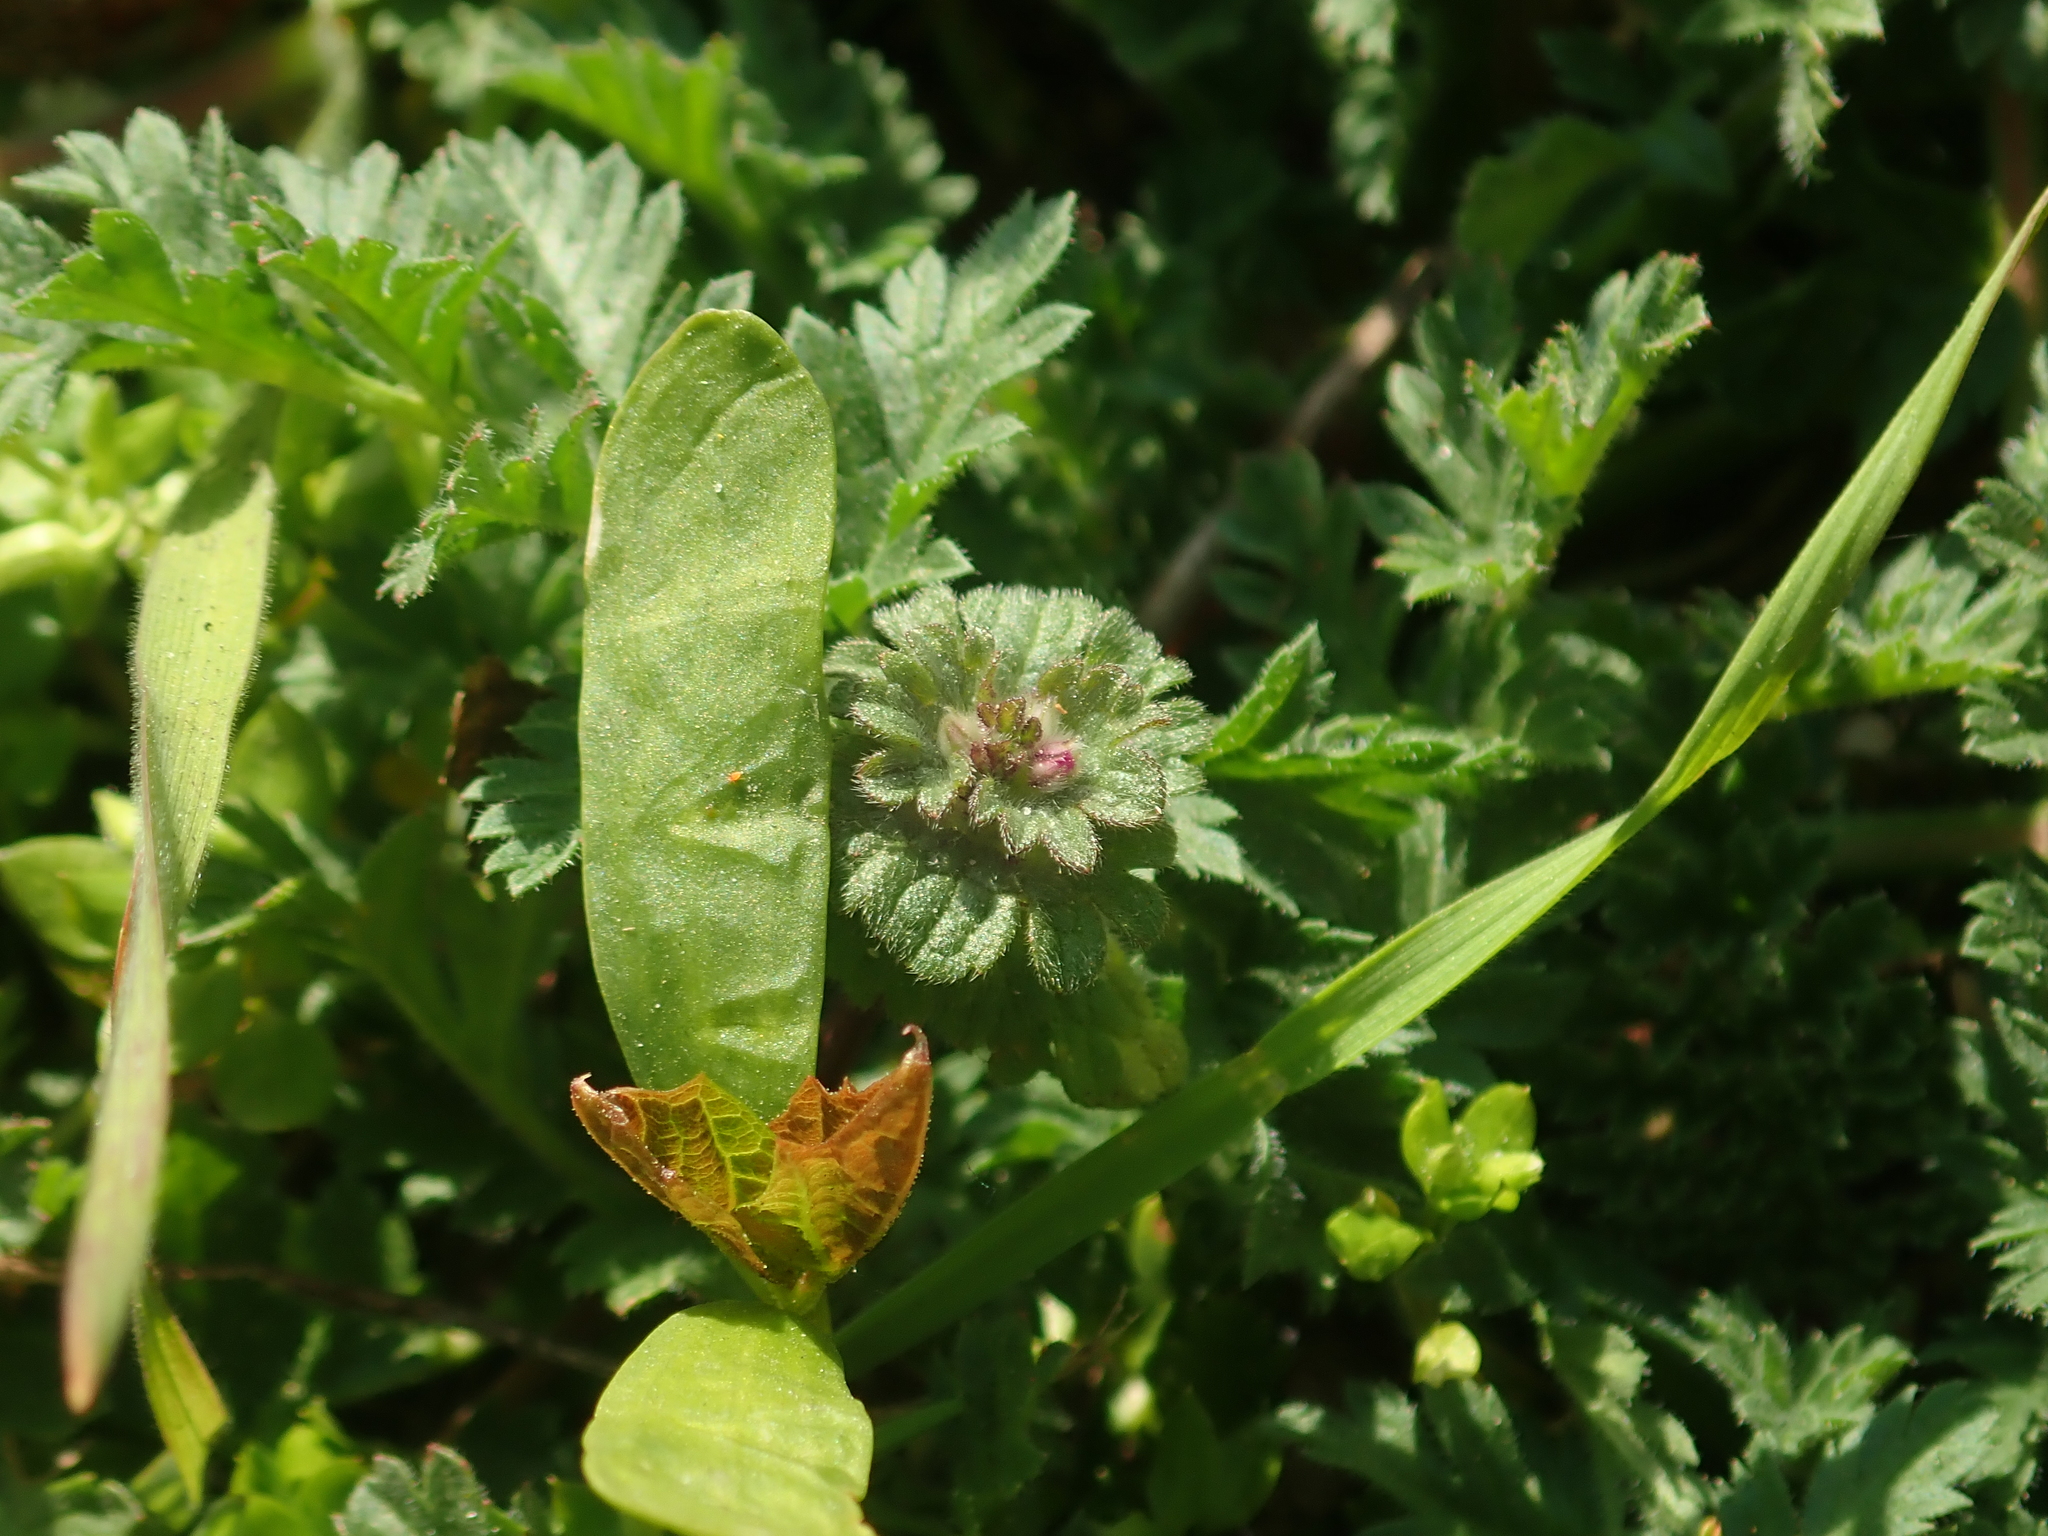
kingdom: Plantae
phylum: Tracheophyta
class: Magnoliopsida
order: Lamiales
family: Lamiaceae
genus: Lamium
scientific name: Lamium amplexicaule
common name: Henbit dead-nettle
